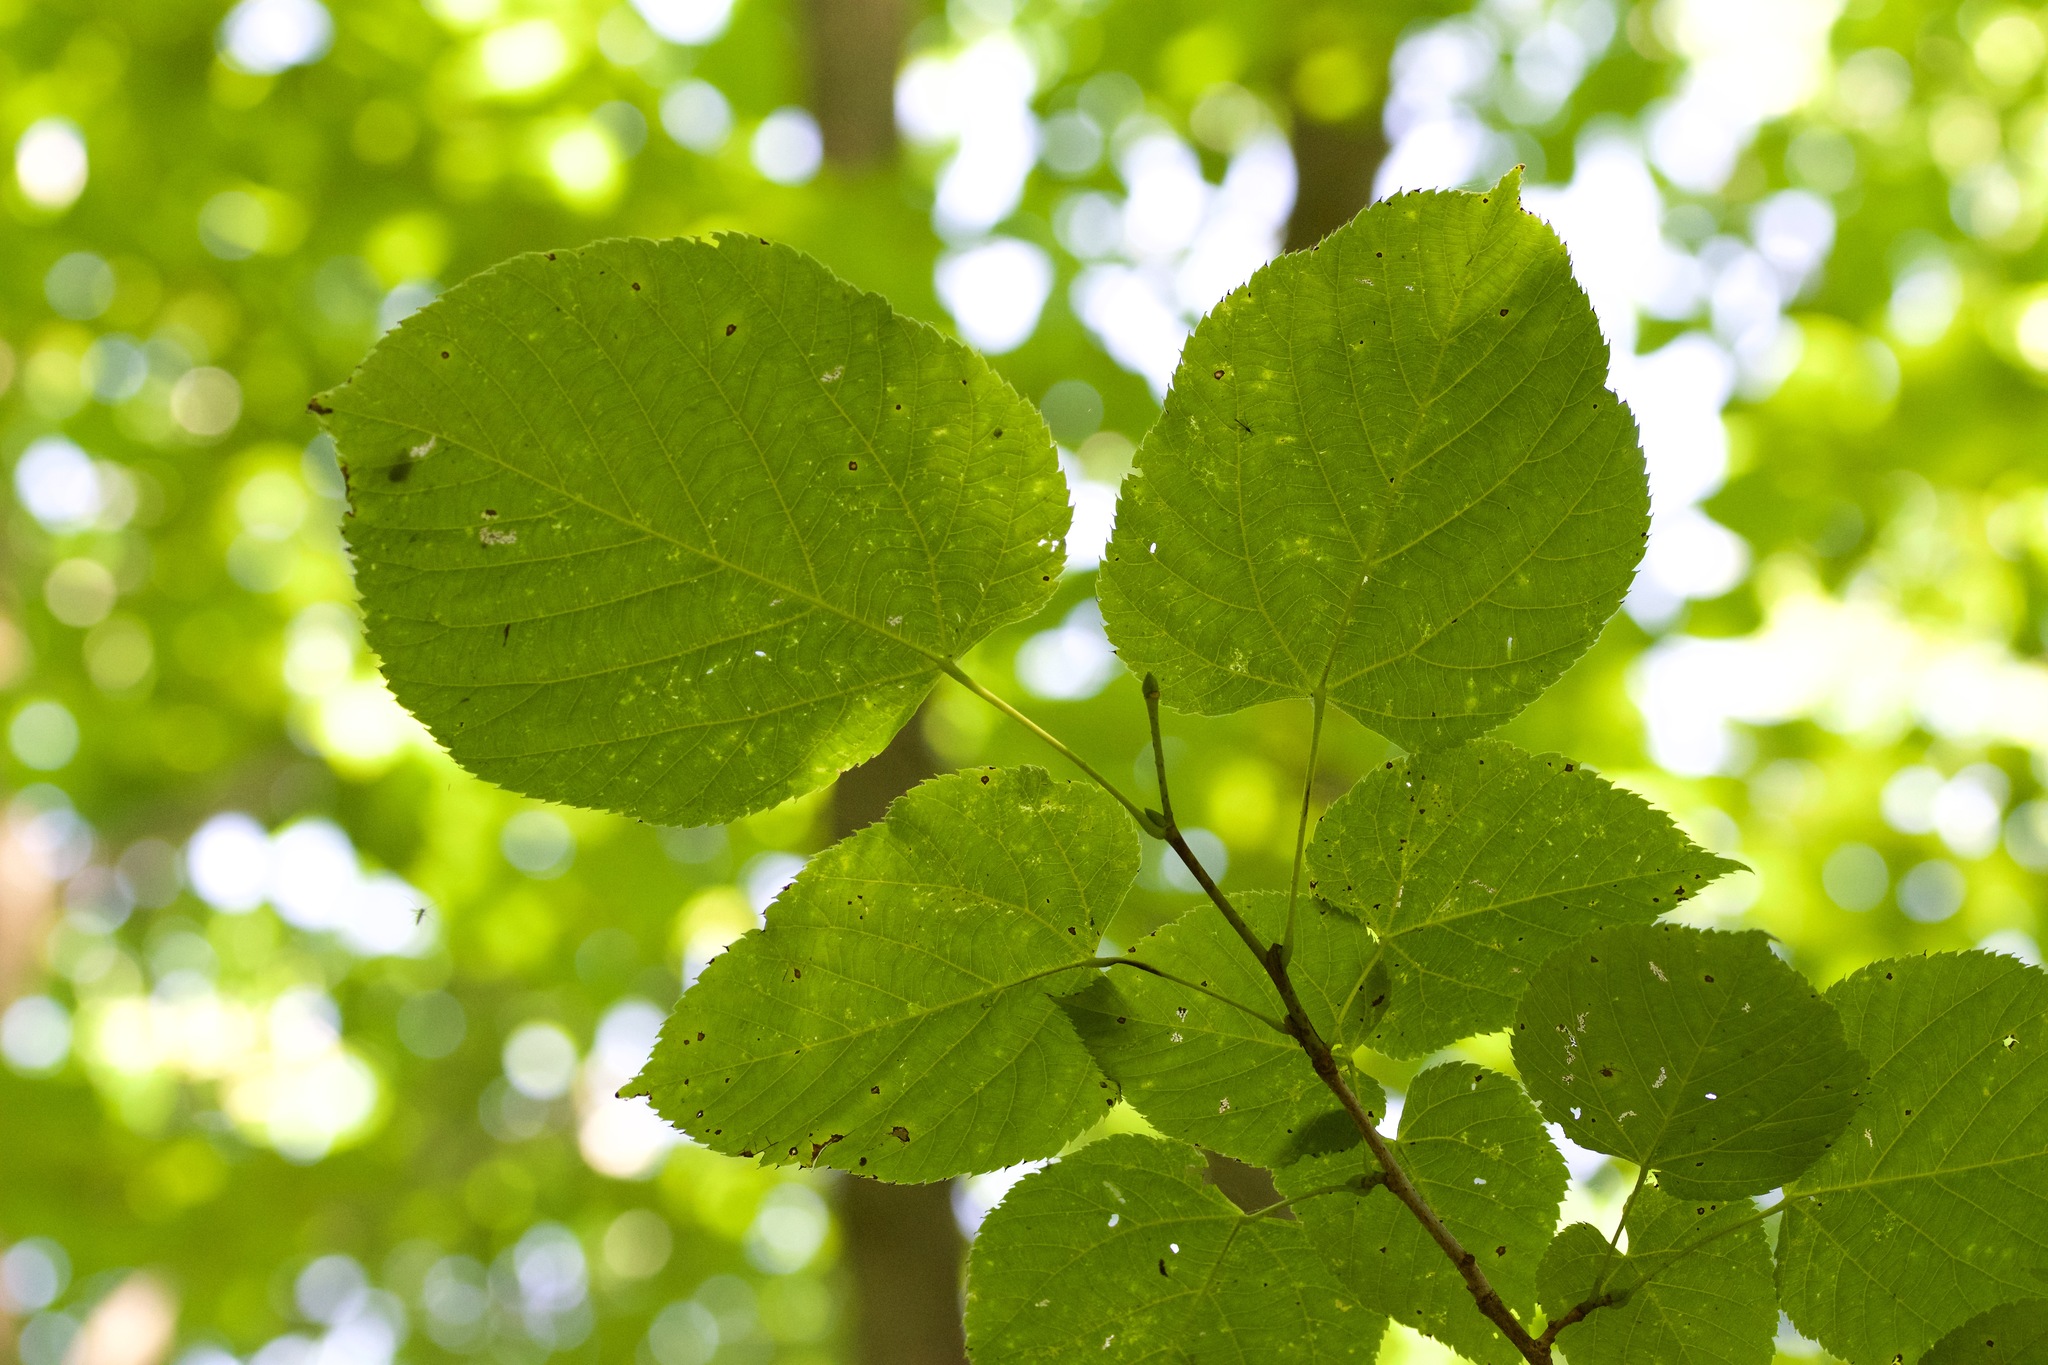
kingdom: Plantae
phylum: Tracheophyta
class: Magnoliopsida
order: Malvales
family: Malvaceae
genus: Tilia
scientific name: Tilia americana
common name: Basswood
